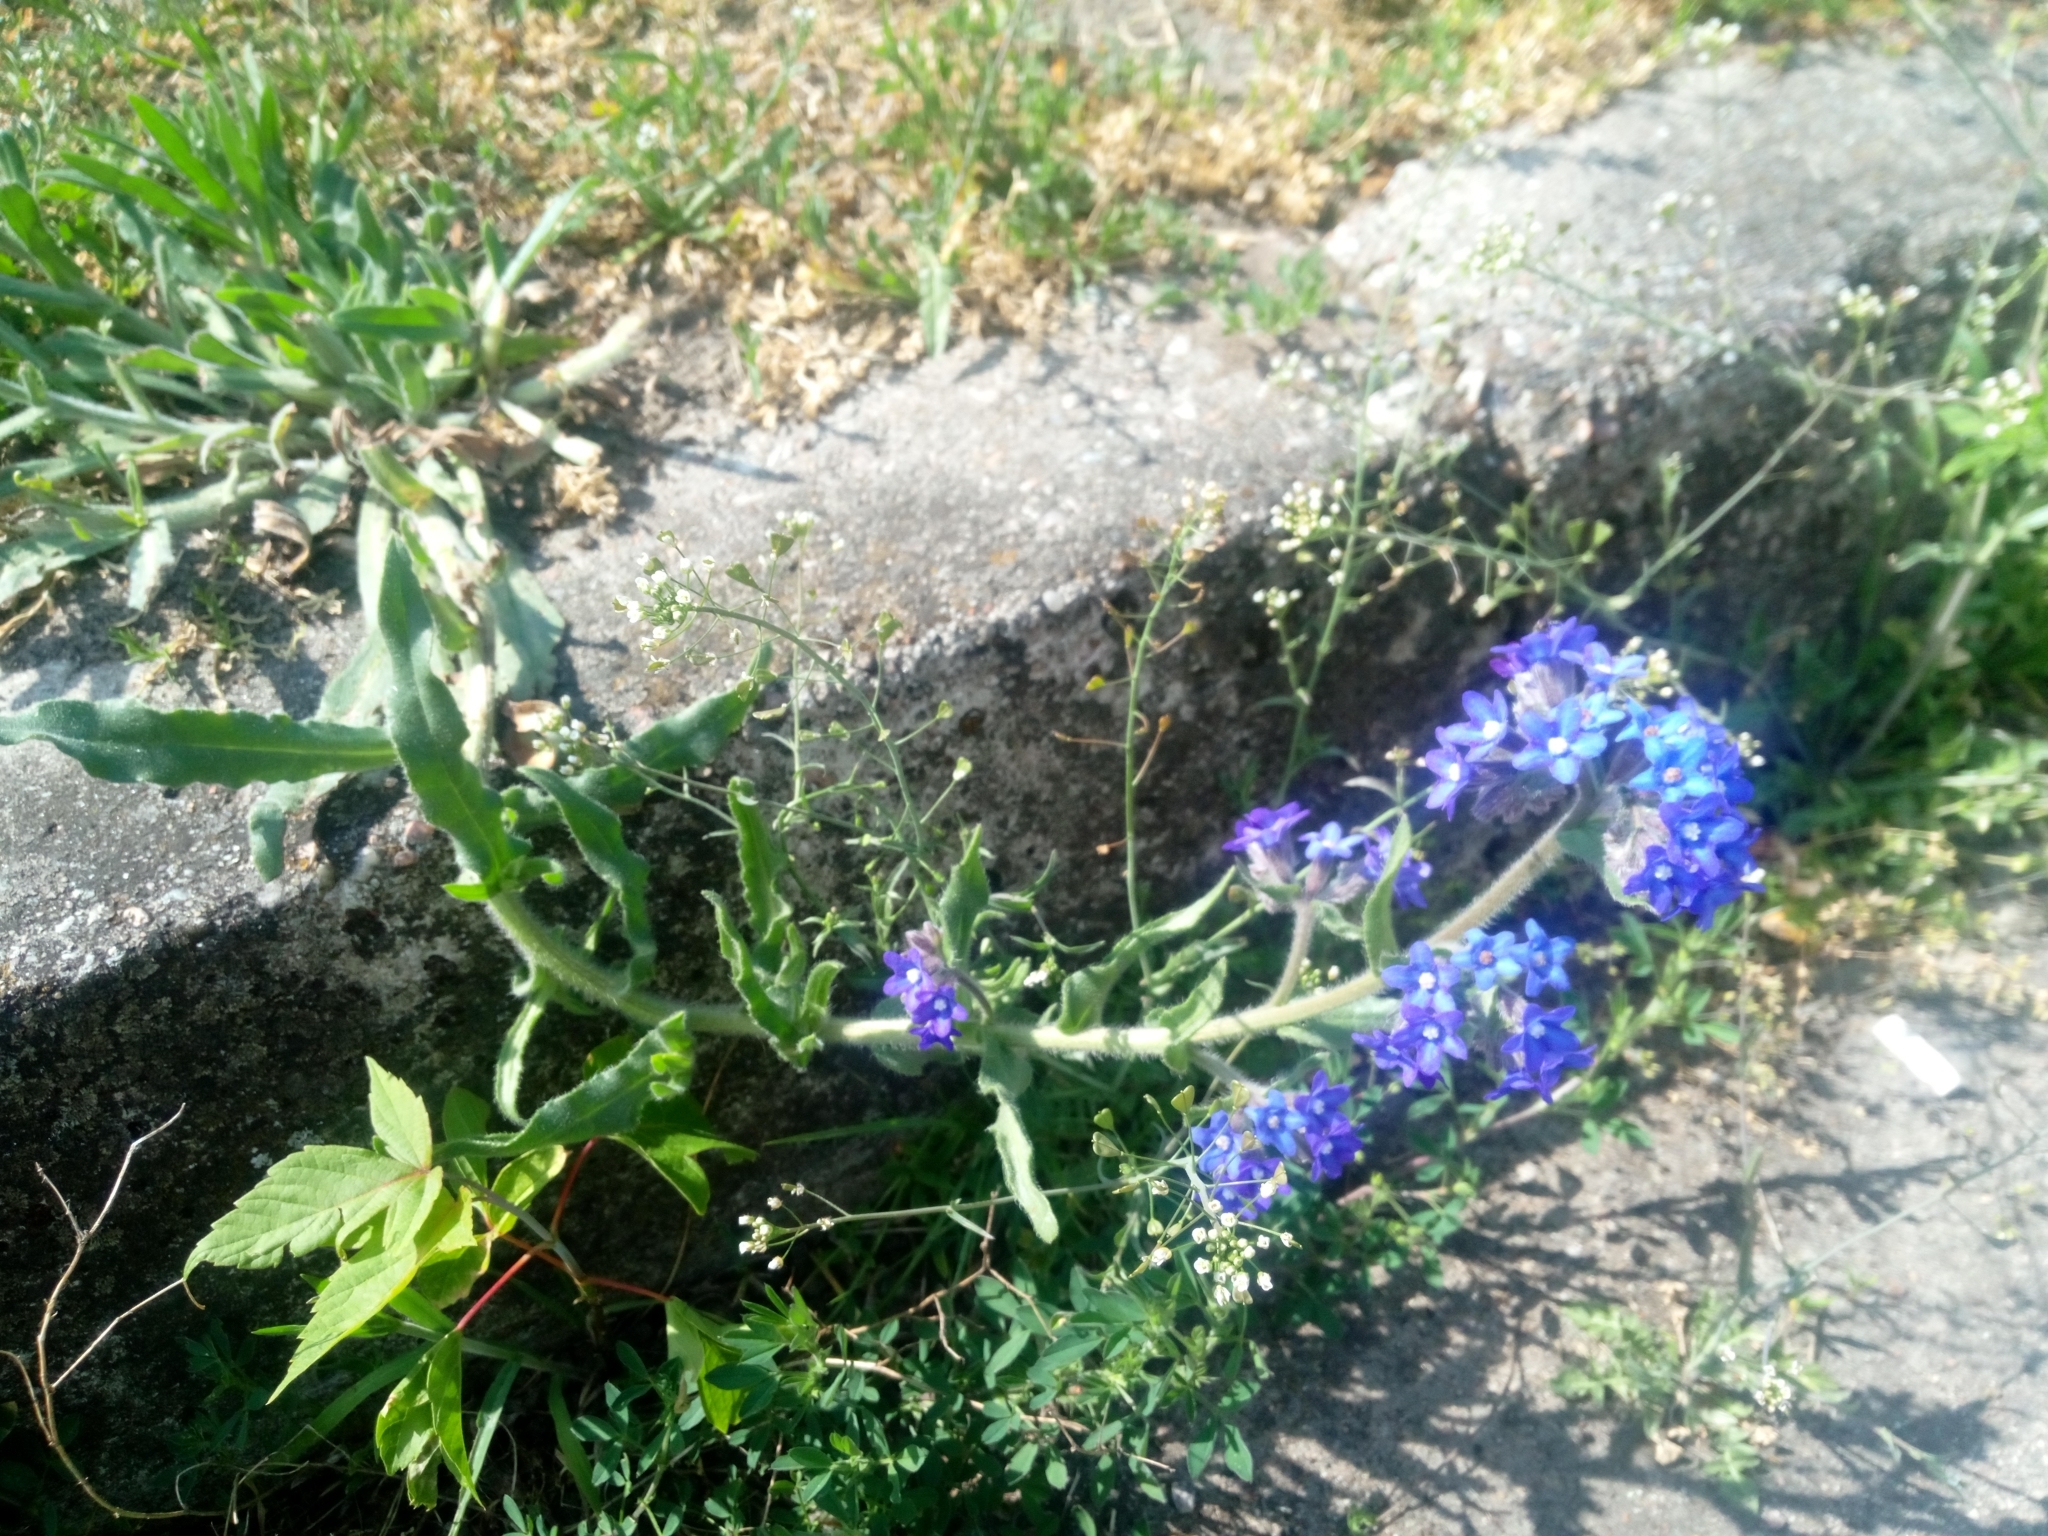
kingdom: Plantae
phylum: Tracheophyta
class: Magnoliopsida
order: Boraginales
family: Boraginaceae
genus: Anchusa
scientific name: Anchusa officinalis
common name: Alkanet
